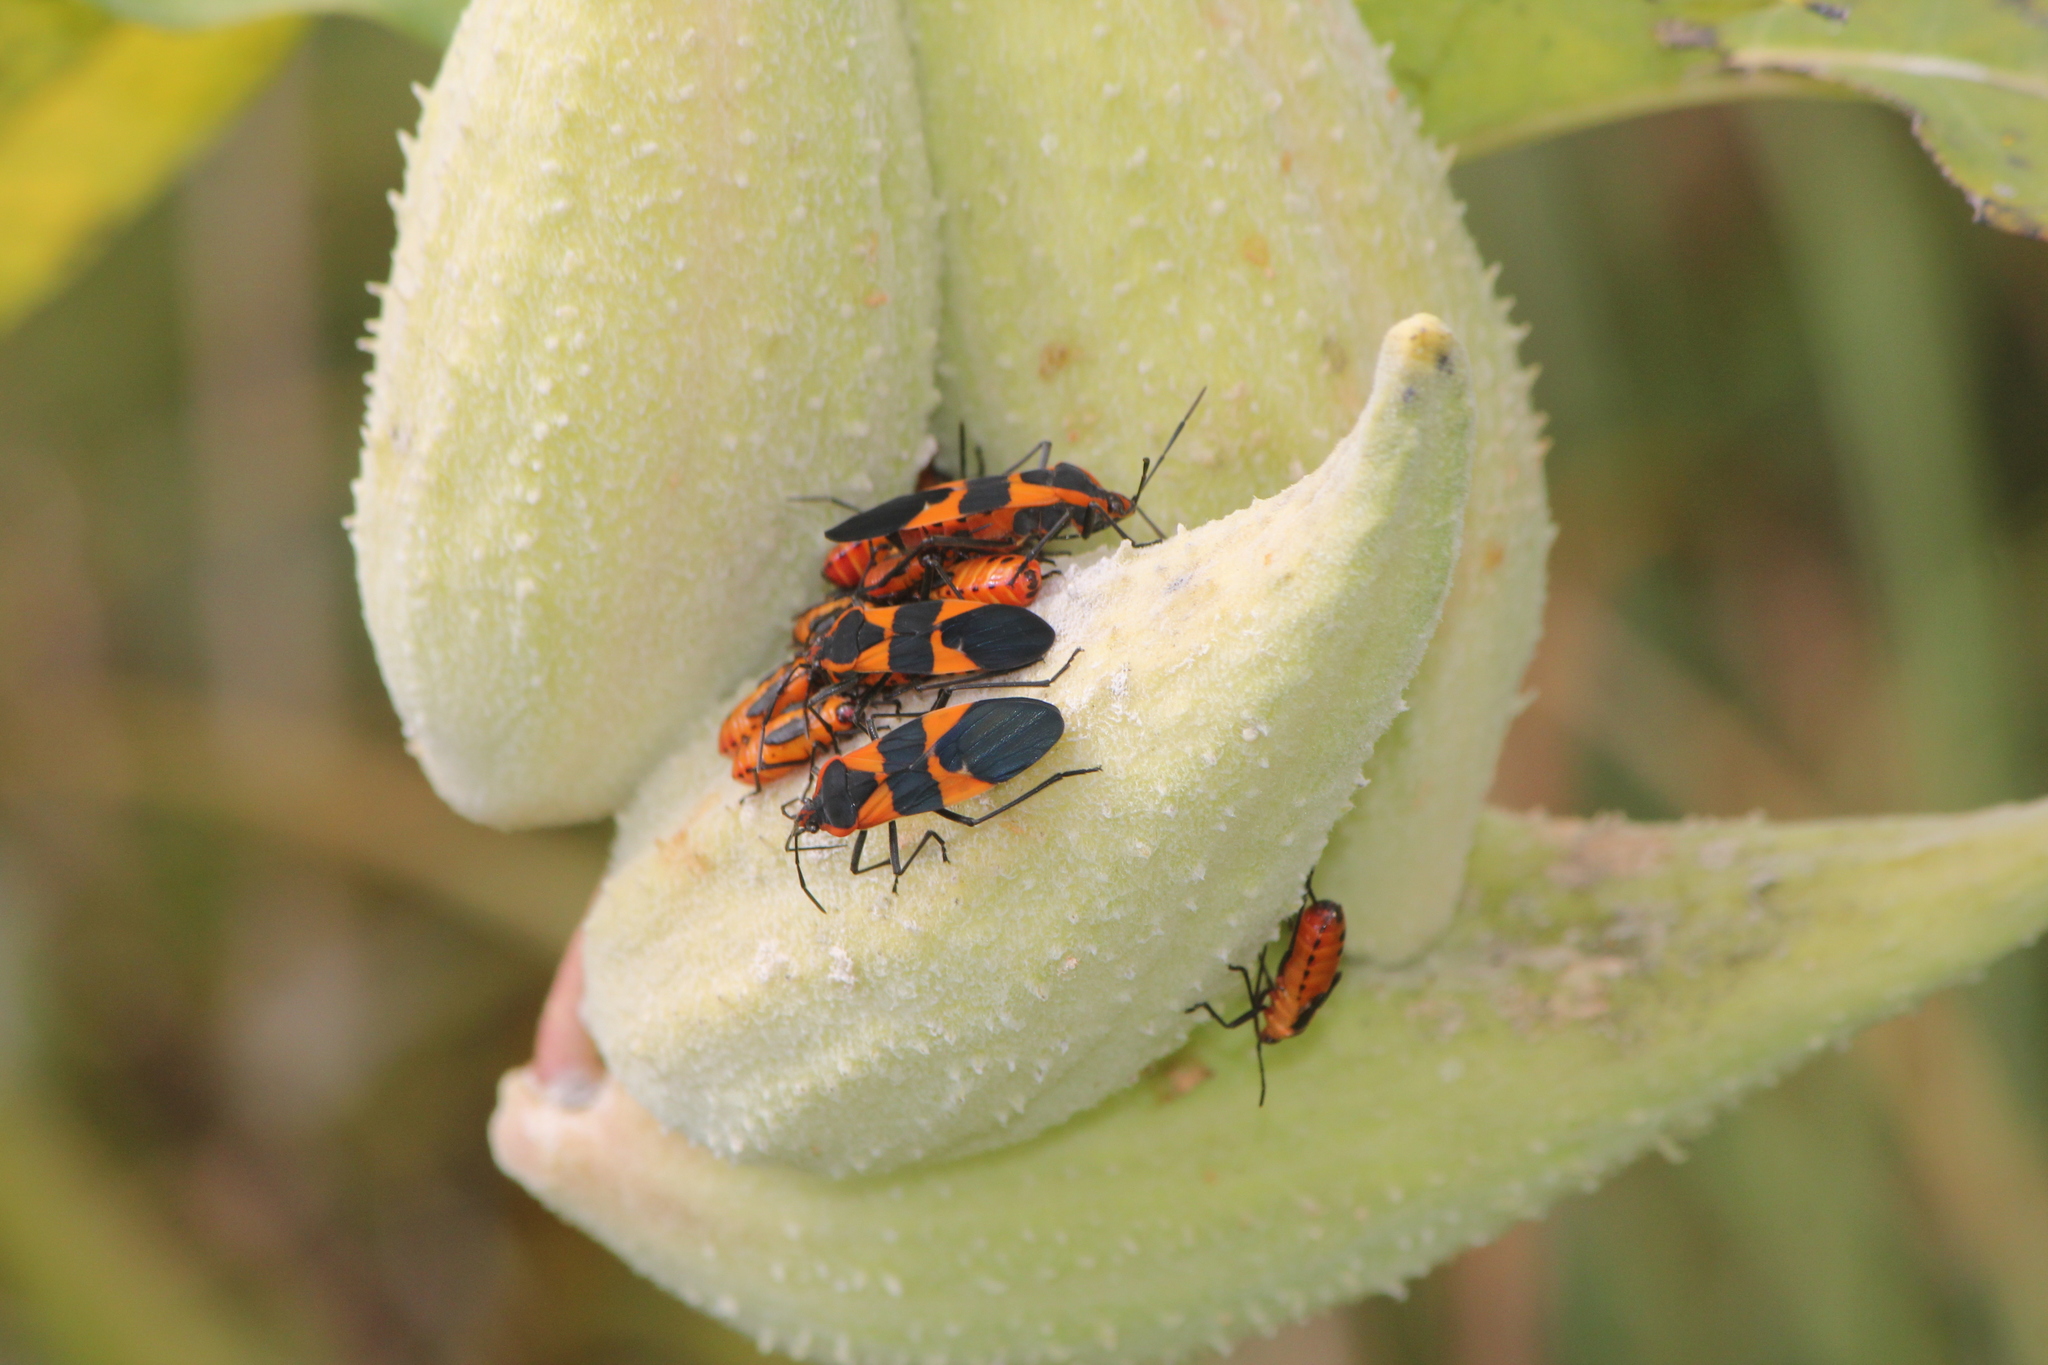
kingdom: Animalia
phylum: Arthropoda
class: Insecta
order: Hemiptera
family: Lygaeidae
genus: Oncopeltus
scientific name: Oncopeltus fasciatus
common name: Large milkweed bug
